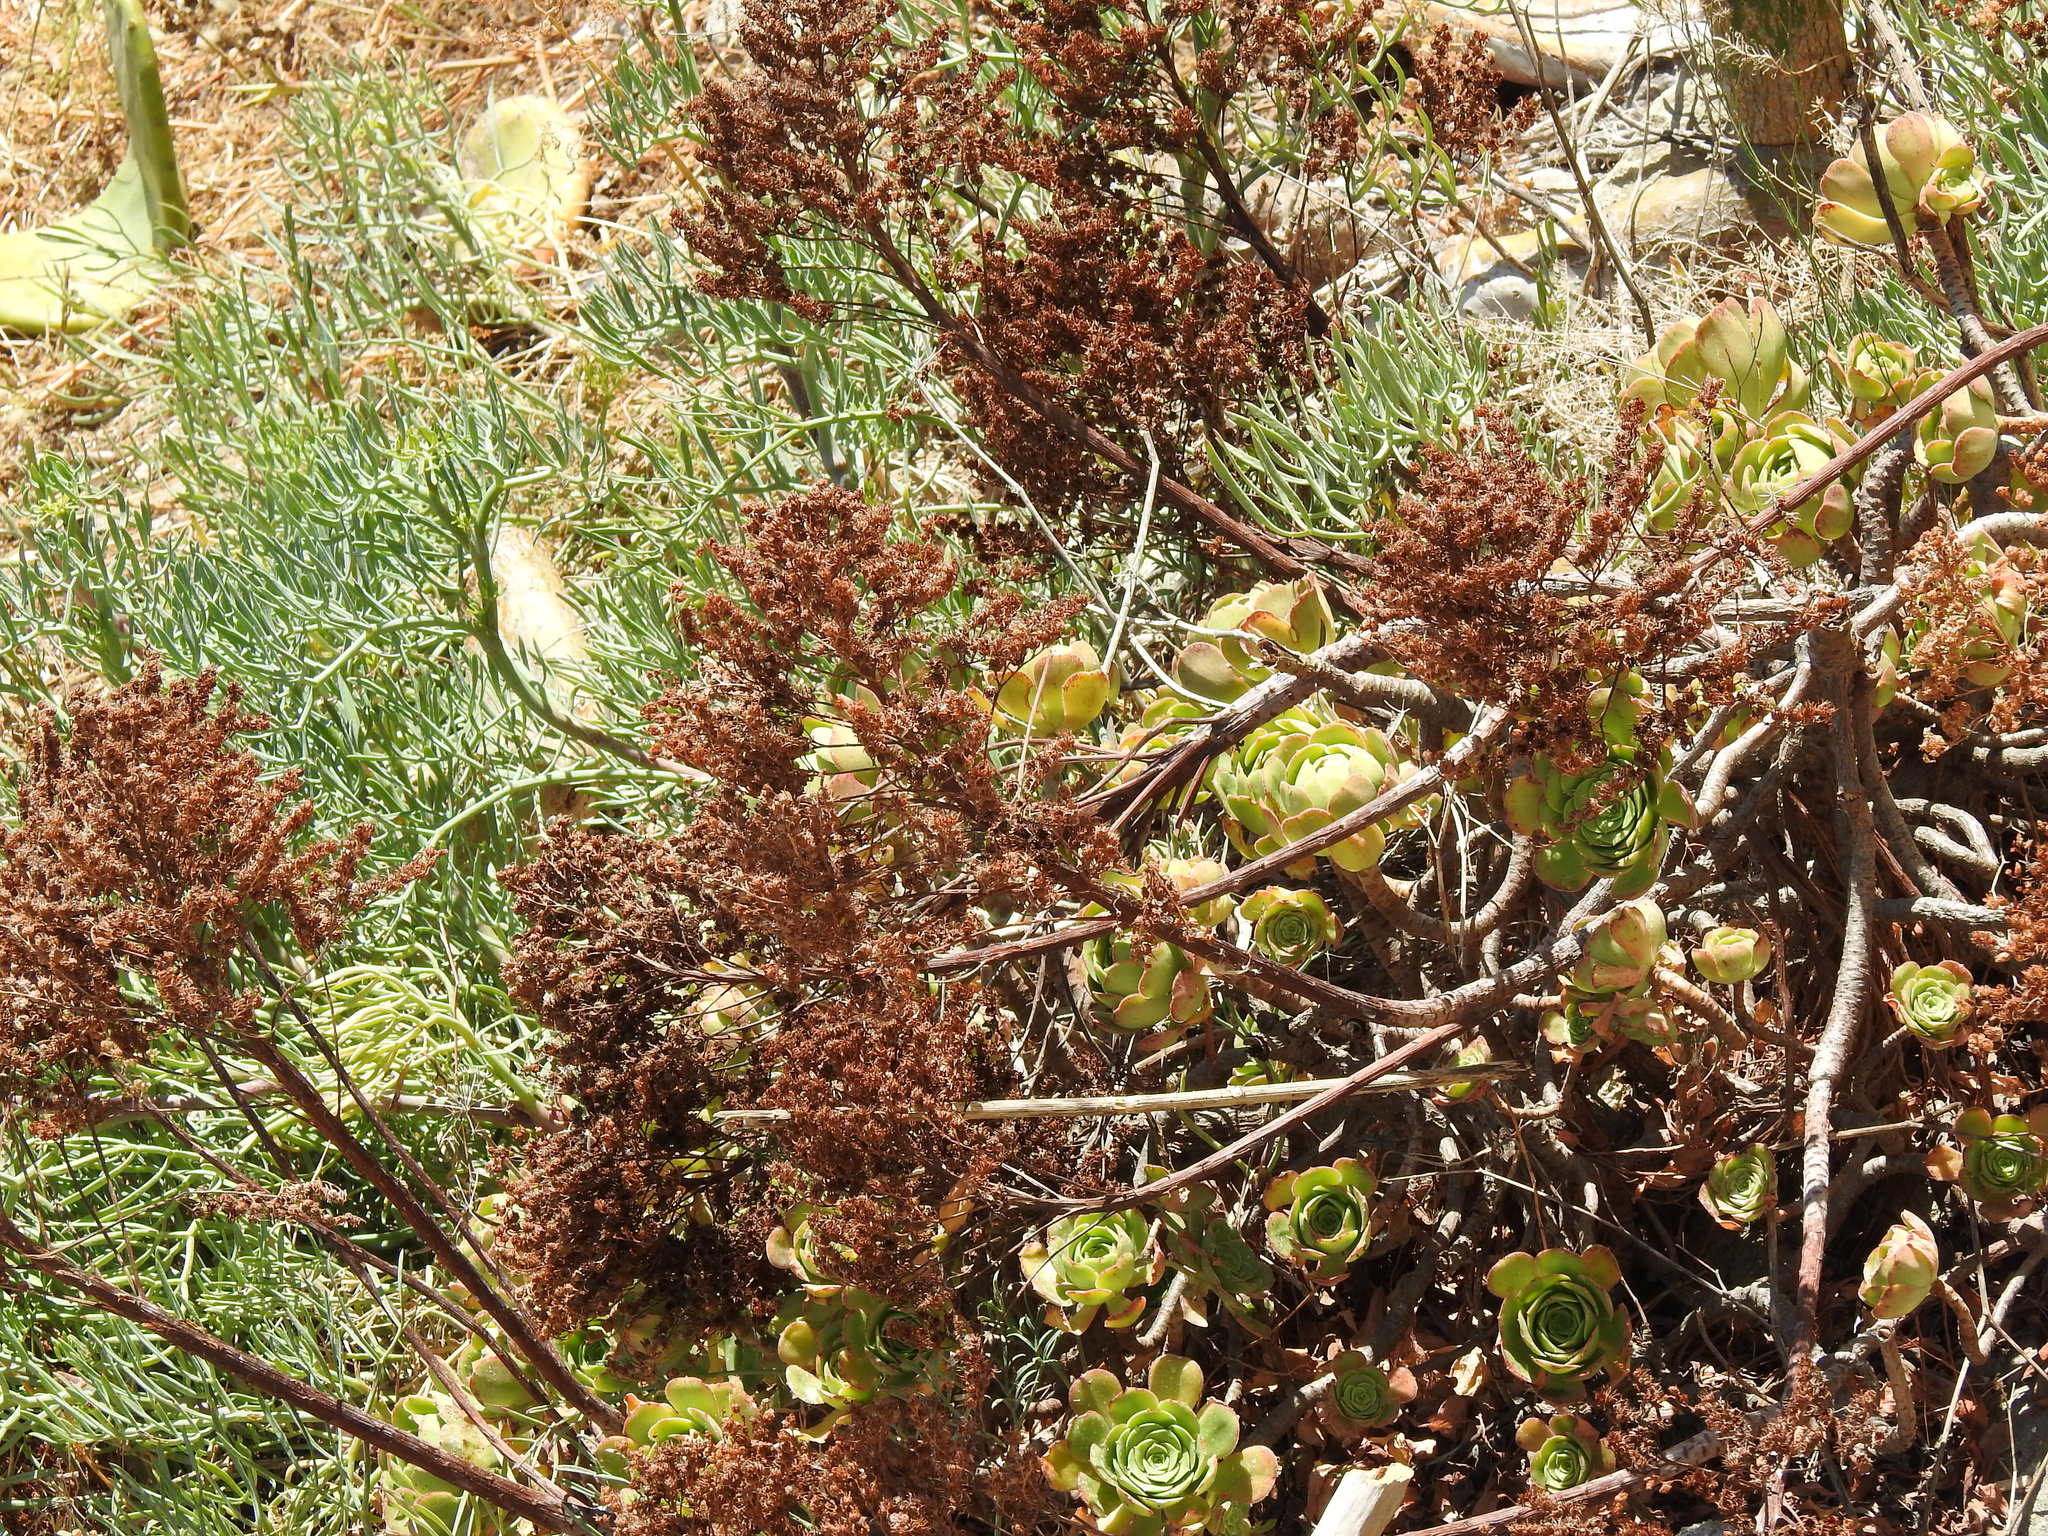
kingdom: Plantae
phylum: Tracheophyta
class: Magnoliopsida
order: Saxifragales
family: Crassulaceae
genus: Aeonium
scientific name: Aeonium arboreum
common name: Tree aeonium
